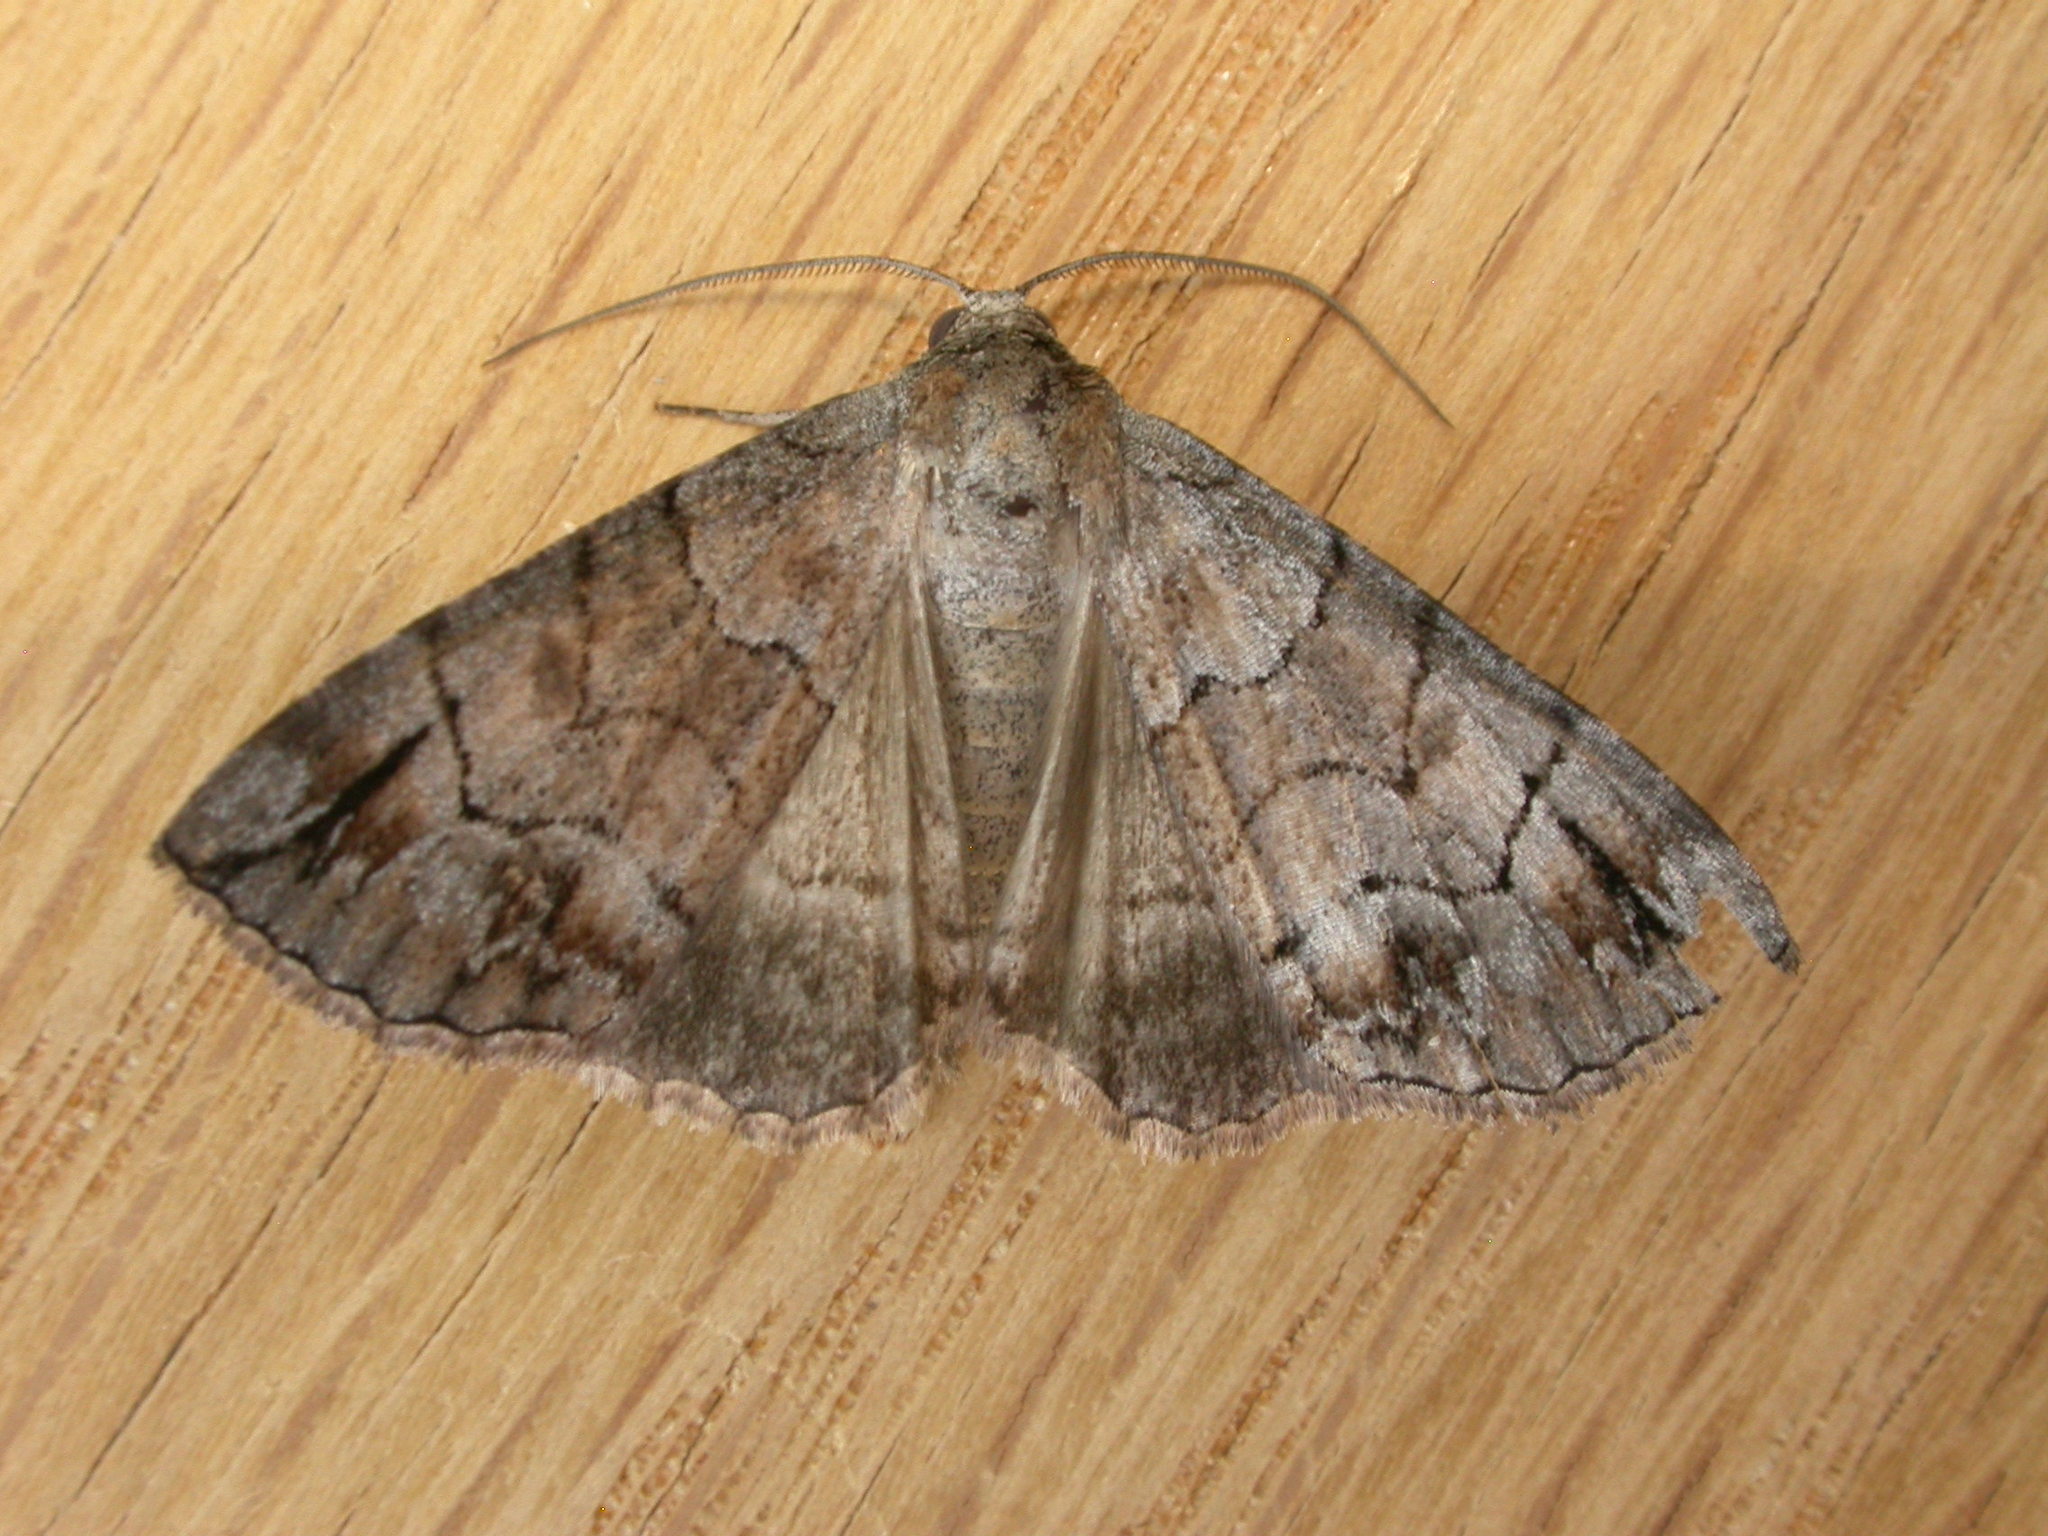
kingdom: Animalia
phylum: Arthropoda
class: Insecta
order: Lepidoptera
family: Geometridae
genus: Dysbatus
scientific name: Dysbatus stenodesma
